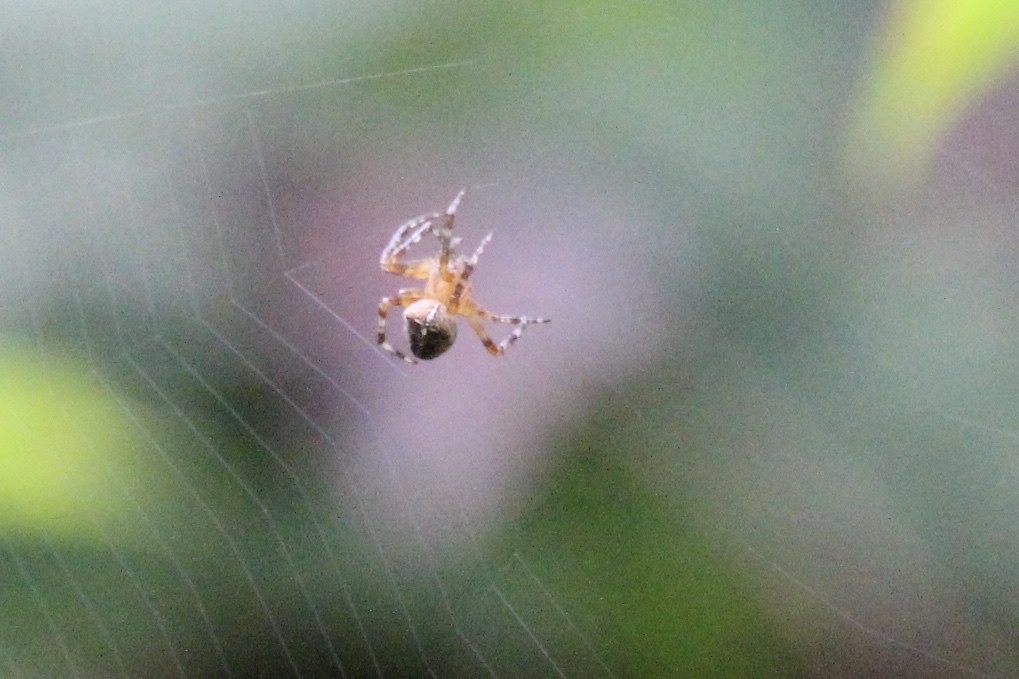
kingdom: Animalia
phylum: Arthropoda
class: Arachnida
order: Araneae
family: Araneidae
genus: Araneus
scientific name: Araneus diadematus
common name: Cross orbweaver
